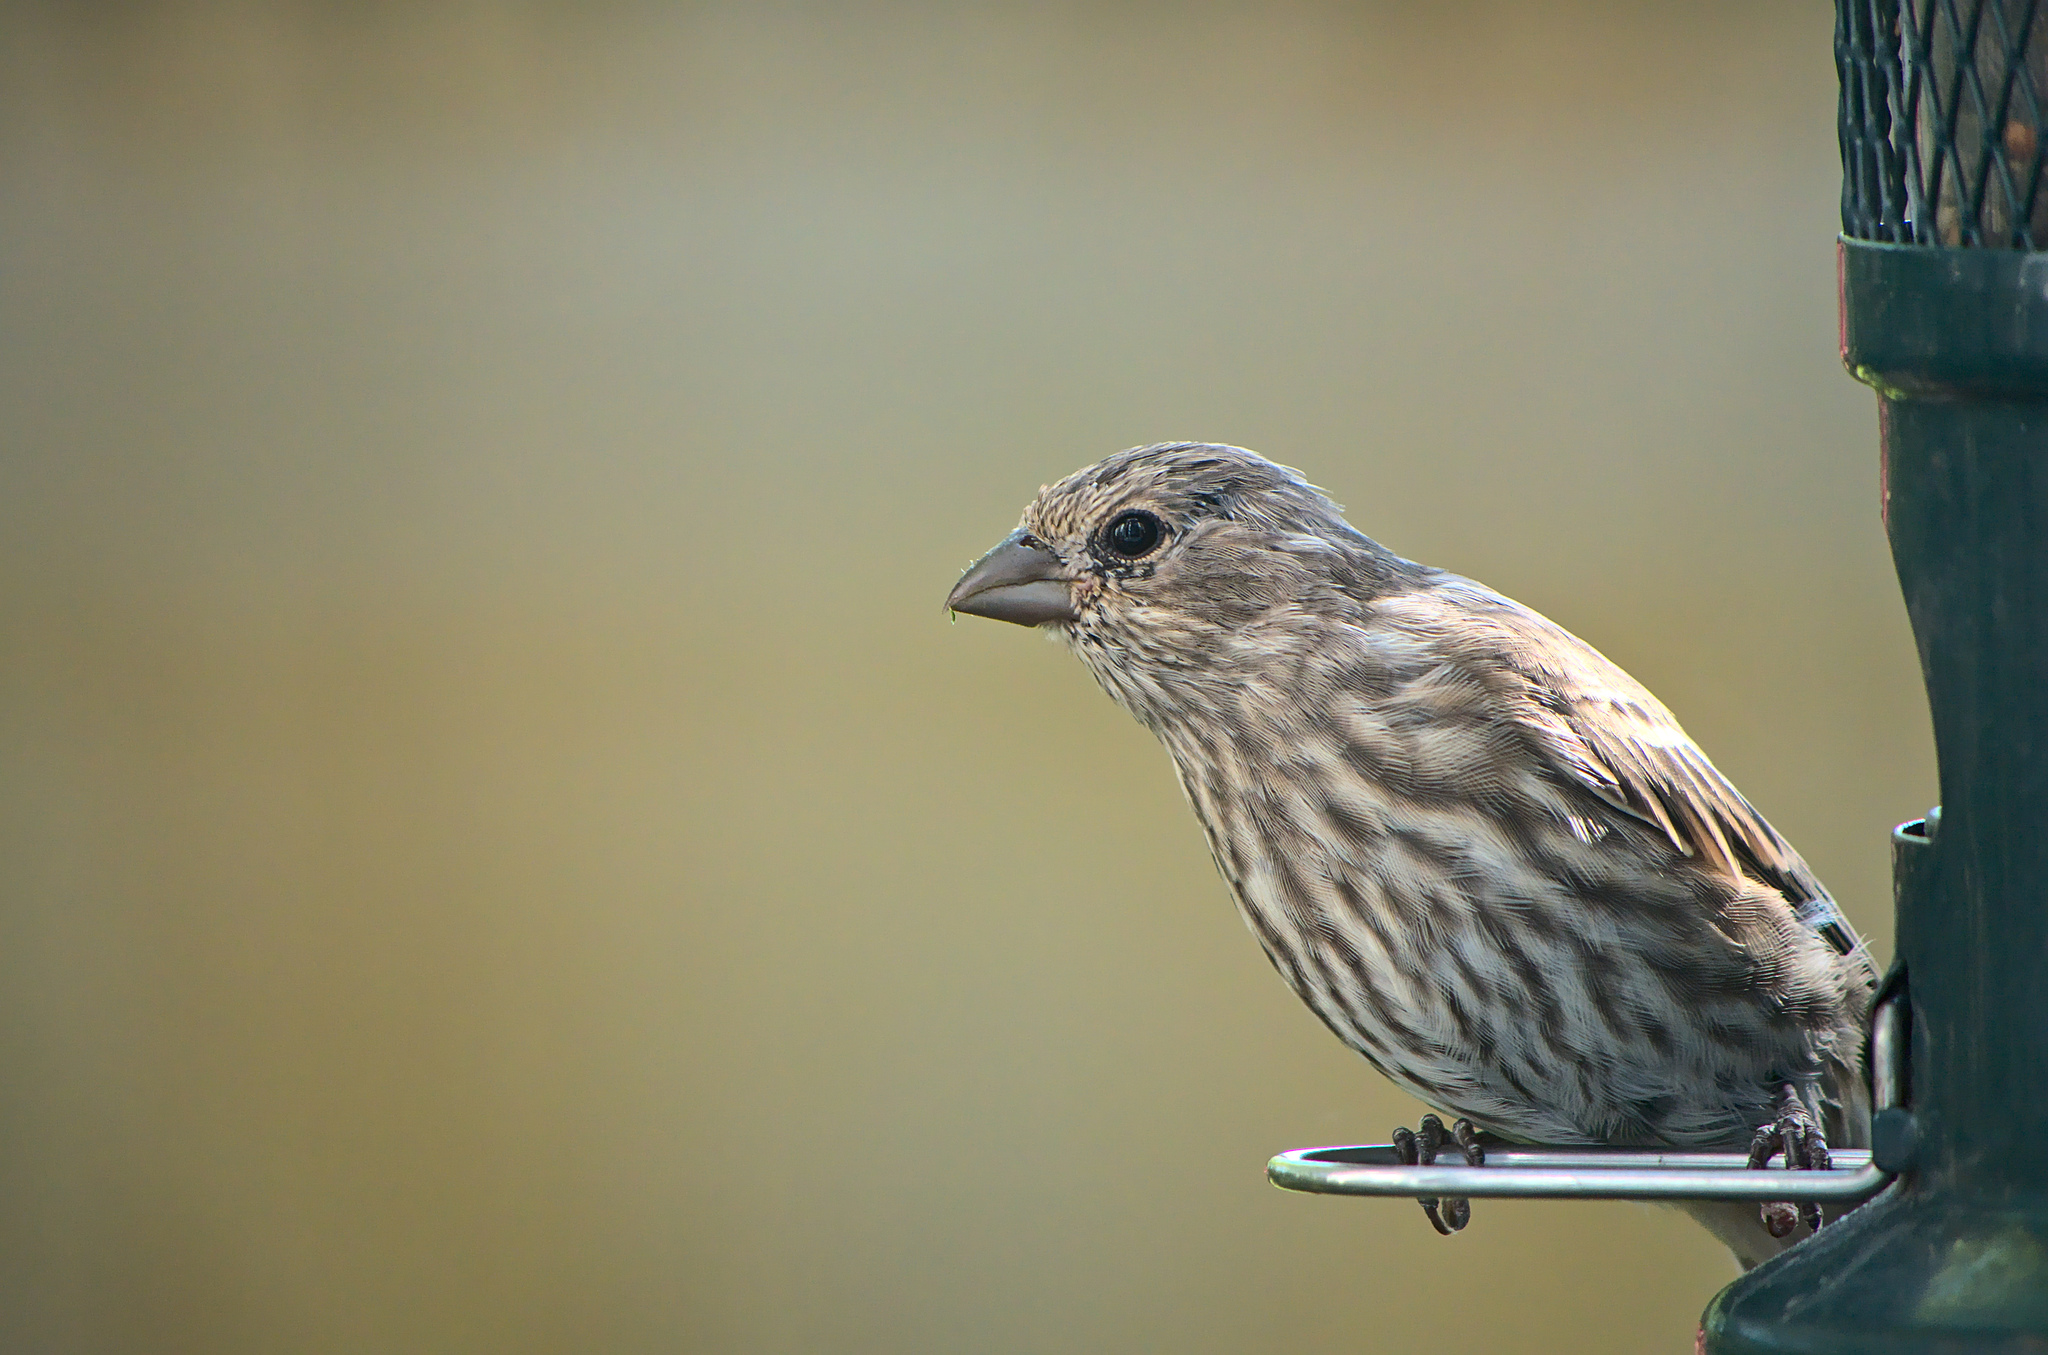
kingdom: Animalia
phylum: Chordata
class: Aves
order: Passeriformes
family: Fringillidae
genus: Haemorhous
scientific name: Haemorhous mexicanus
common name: House finch
